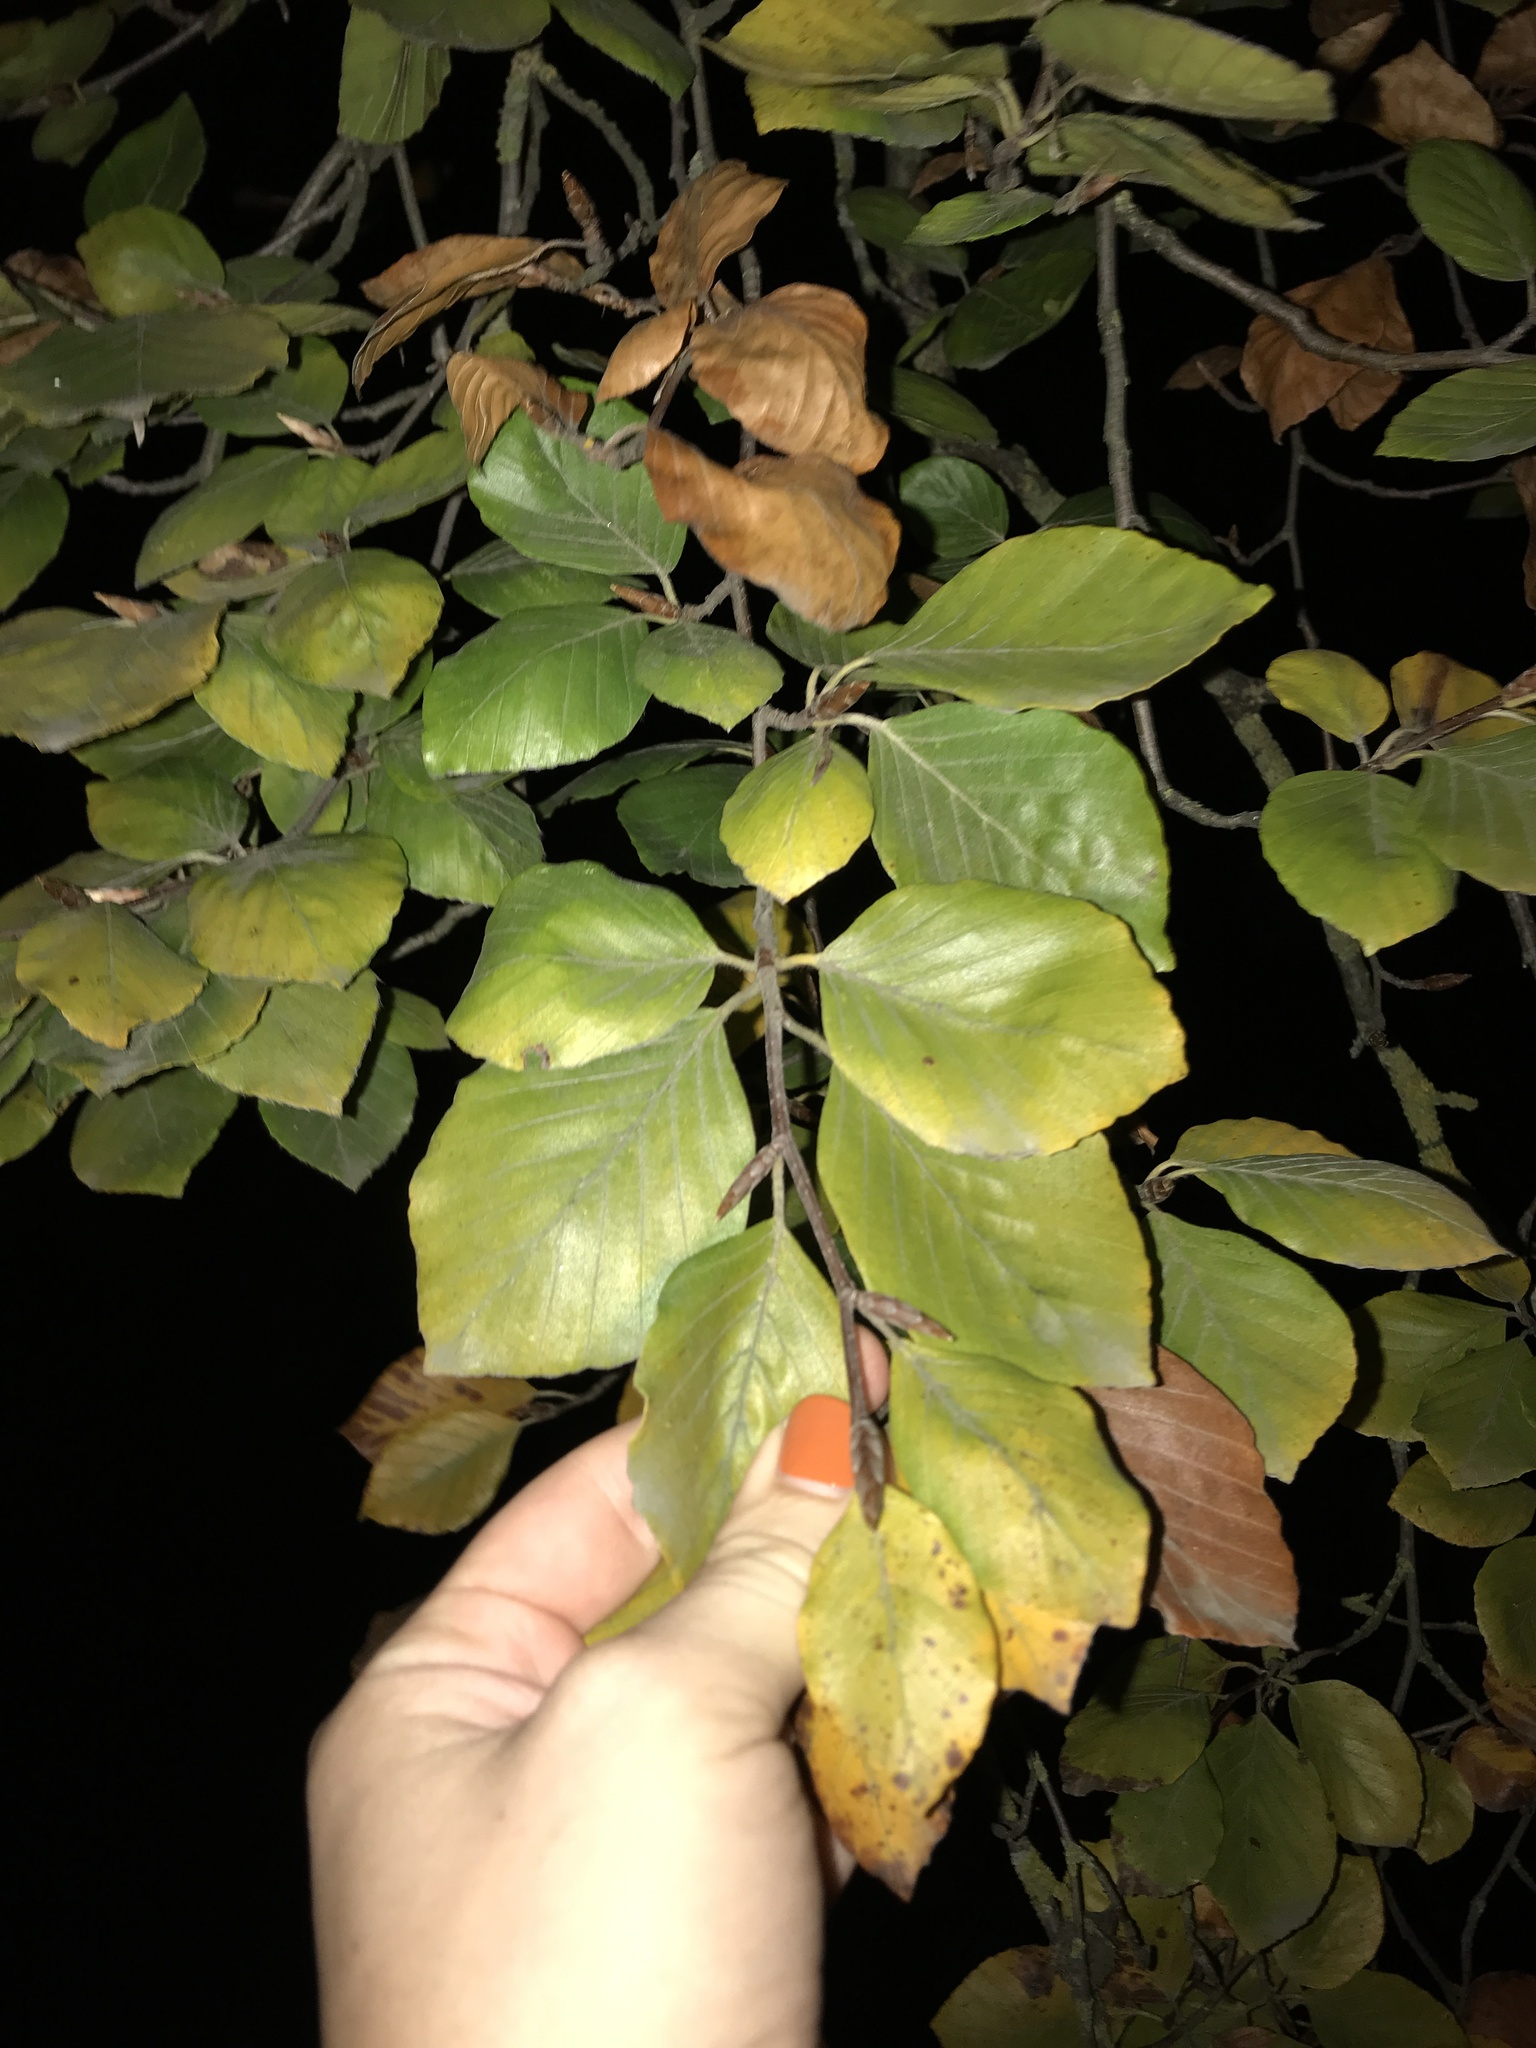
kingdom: Plantae
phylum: Tracheophyta
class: Magnoliopsida
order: Fagales
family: Fagaceae
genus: Fagus
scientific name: Fagus sylvatica
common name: Beech
